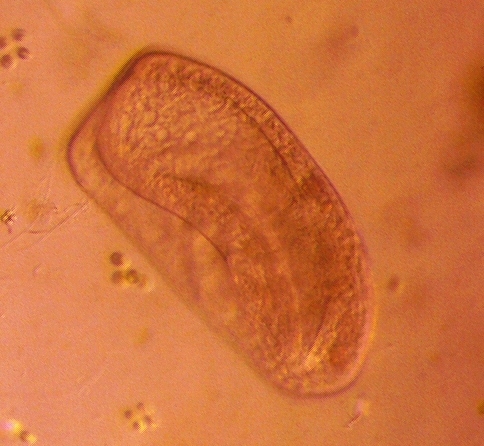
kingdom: Chromista
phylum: Ciliophora
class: Colpodea
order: Bursariomorphida
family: Bursariidae
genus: Bursaria
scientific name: Bursaria truncatella
